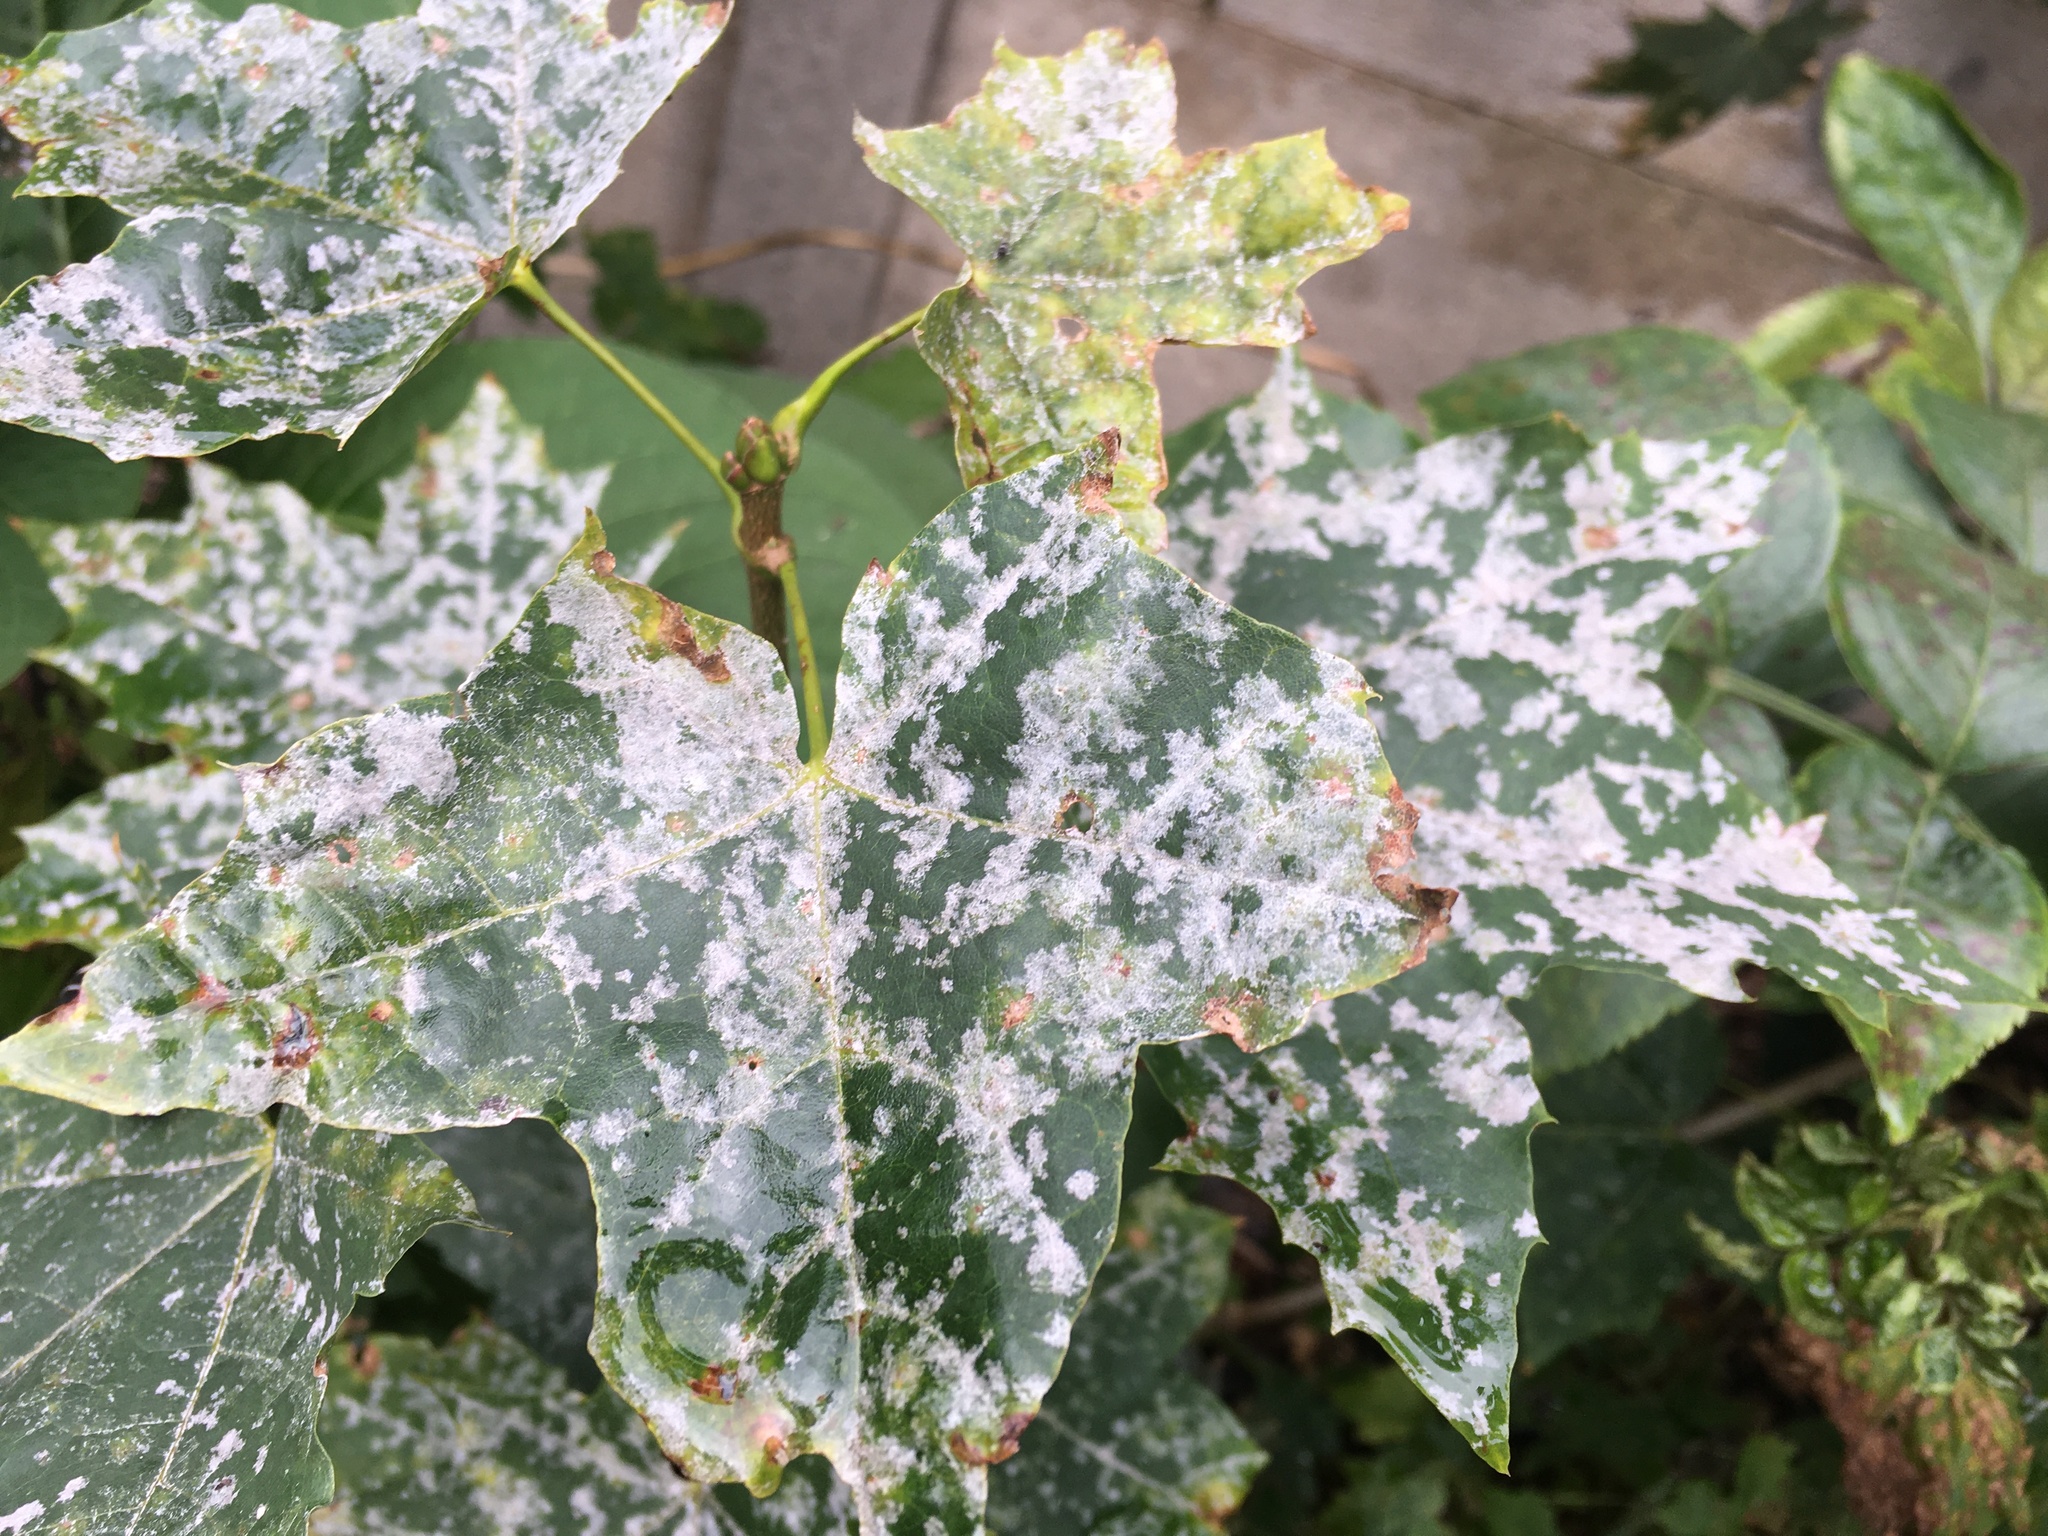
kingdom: Fungi
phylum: Ascomycota
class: Leotiomycetes
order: Helotiales
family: Erysiphaceae
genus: Sawadaea
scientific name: Sawadaea tulasnei
